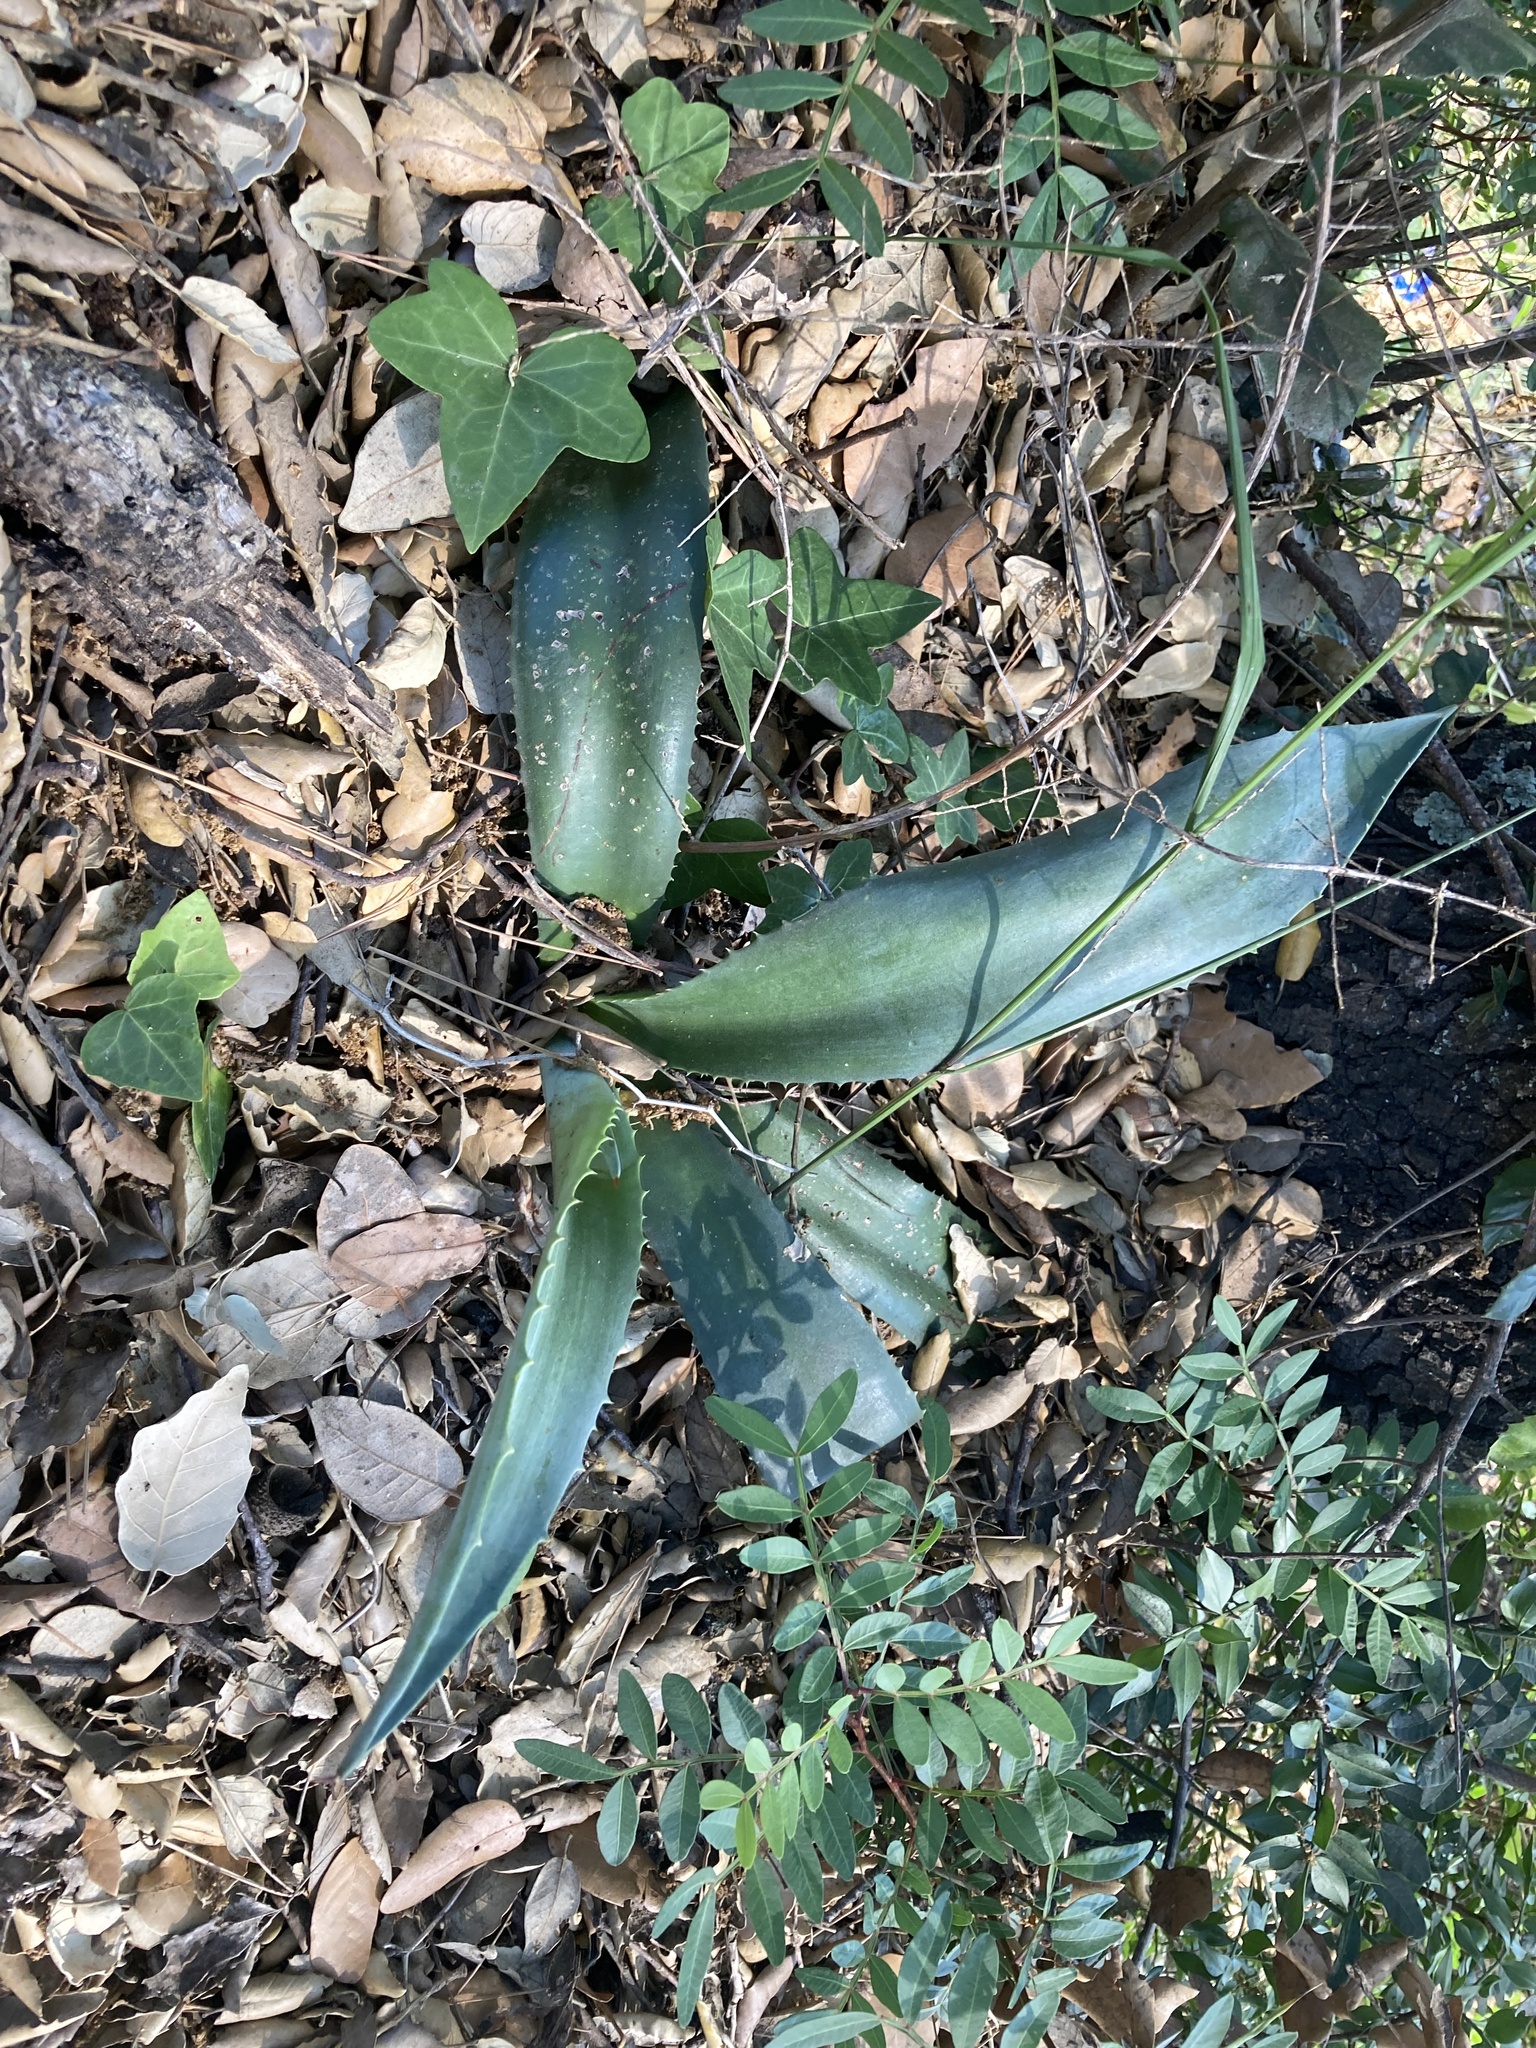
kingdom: Plantae
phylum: Tracheophyta
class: Liliopsida
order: Asparagales
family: Asparagaceae
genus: Agave
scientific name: Agave americana
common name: Centuryplant
